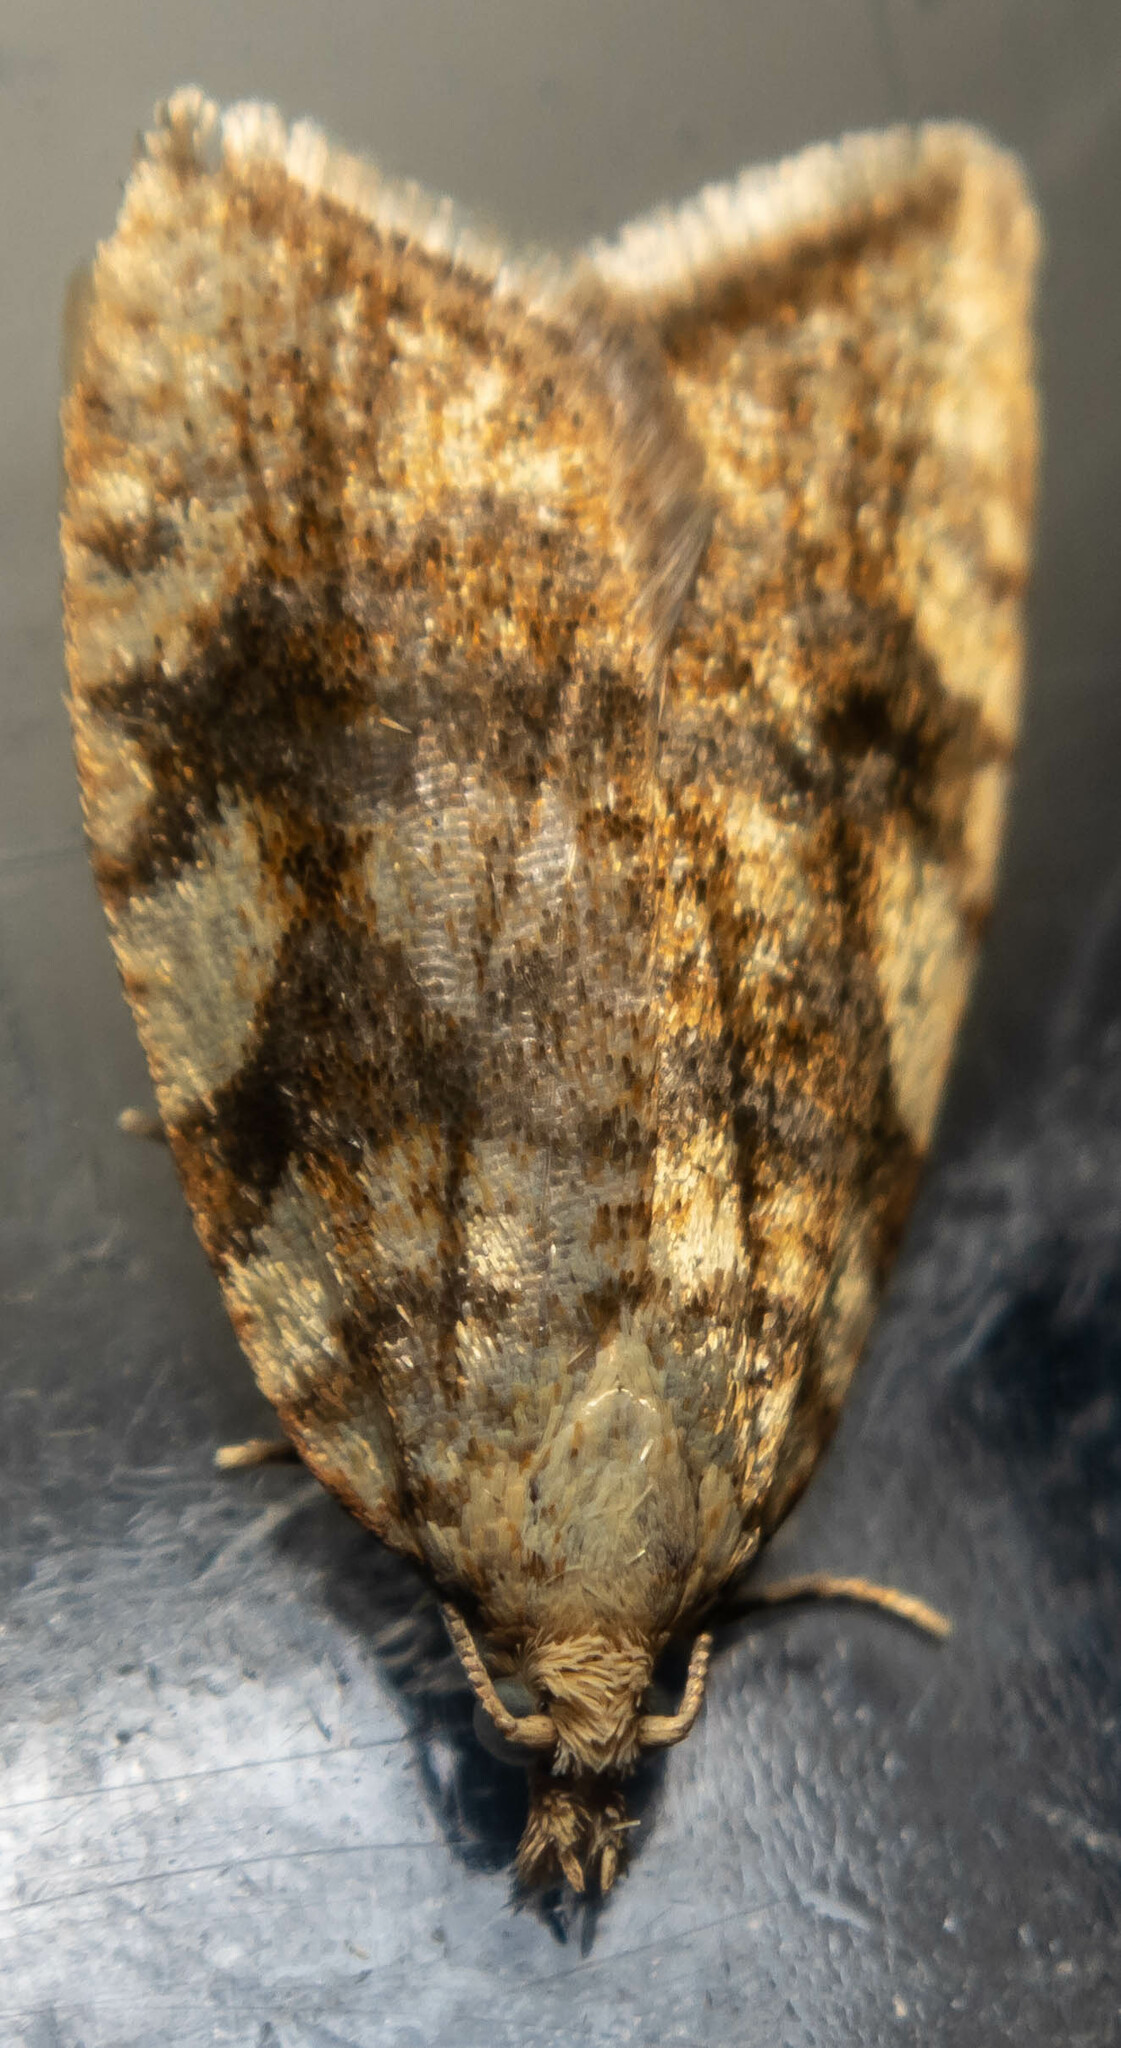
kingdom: Animalia
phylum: Arthropoda
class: Insecta
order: Lepidoptera
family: Tortricidae
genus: Aleimma
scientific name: Aleimma loeflingiana
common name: Yellow oak button
